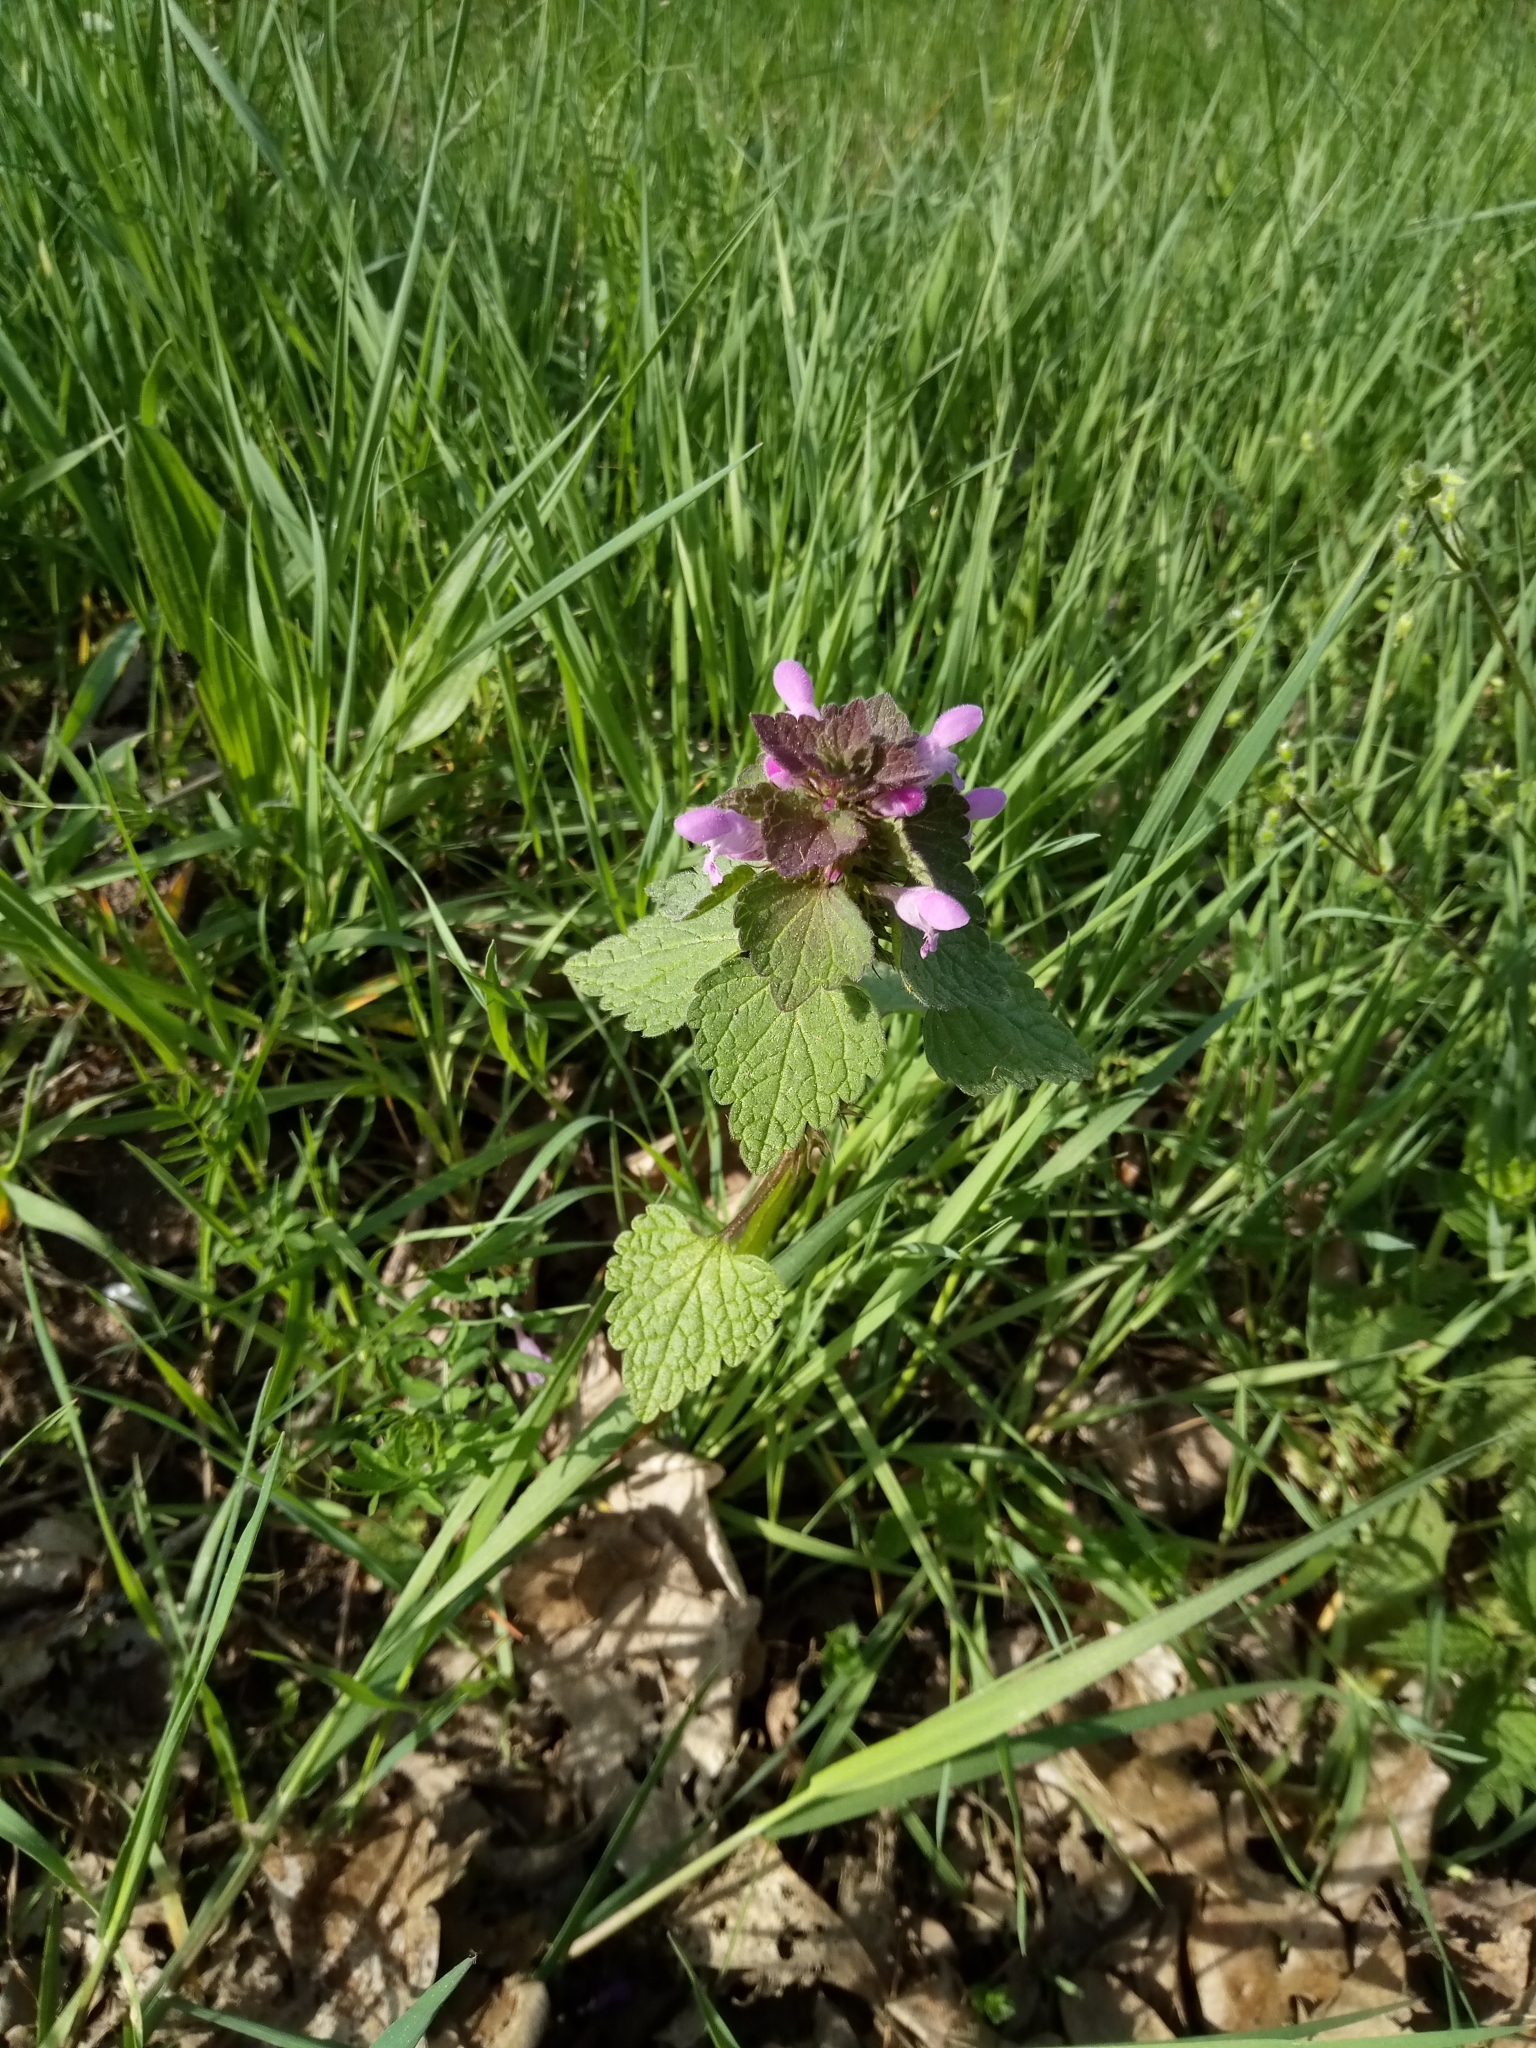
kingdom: Plantae
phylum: Tracheophyta
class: Magnoliopsida
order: Lamiales
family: Lamiaceae
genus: Lamium
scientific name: Lamium purpureum
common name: Red dead-nettle
